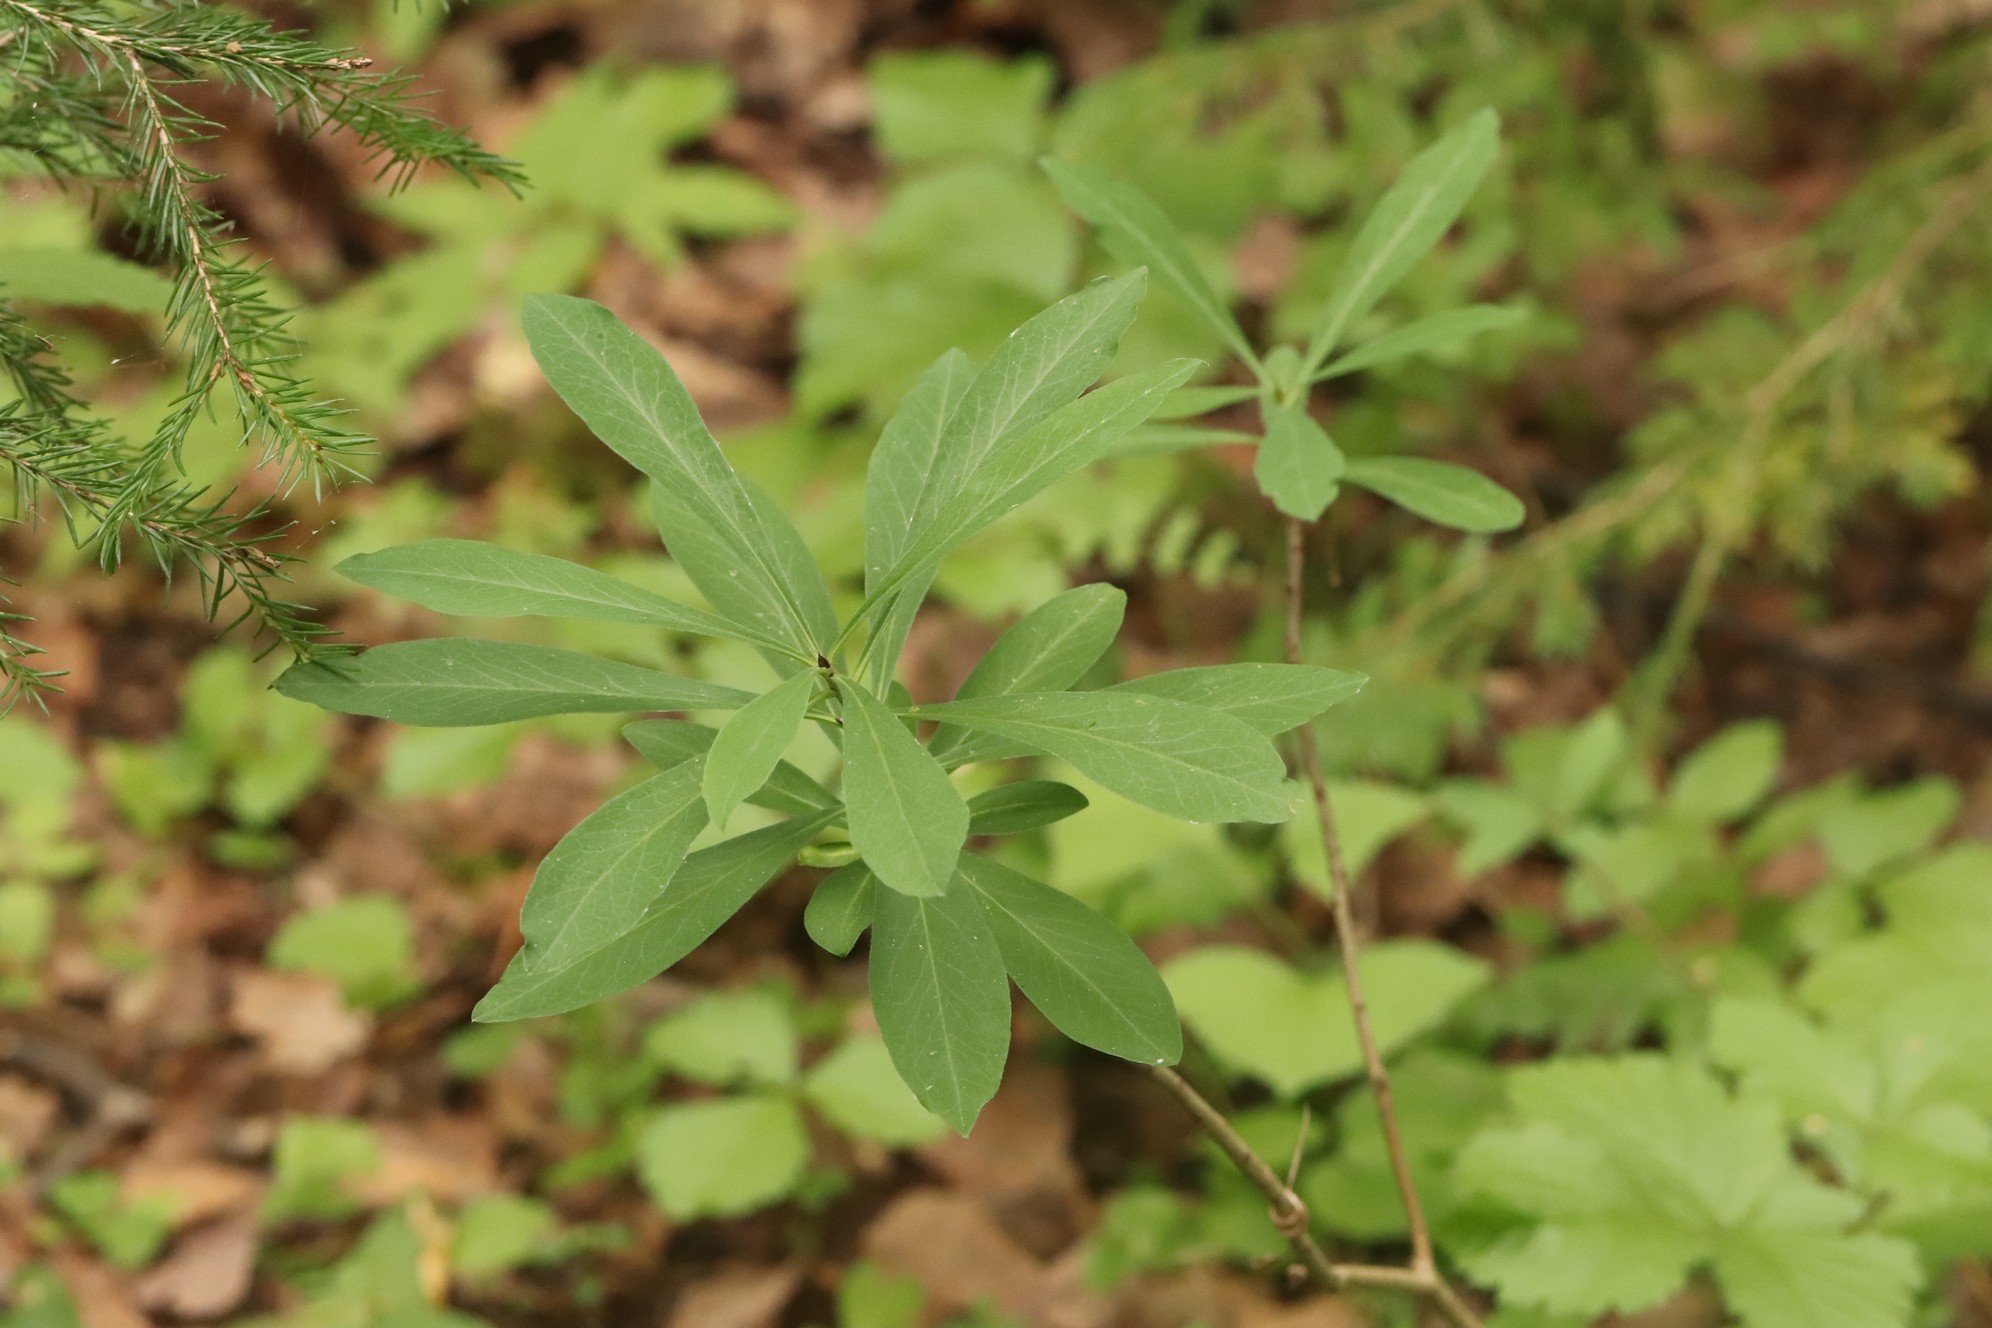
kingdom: Plantae
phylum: Tracheophyta
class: Magnoliopsida
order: Malvales
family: Thymelaeaceae
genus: Daphne
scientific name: Daphne mezereum
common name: Mezereon
